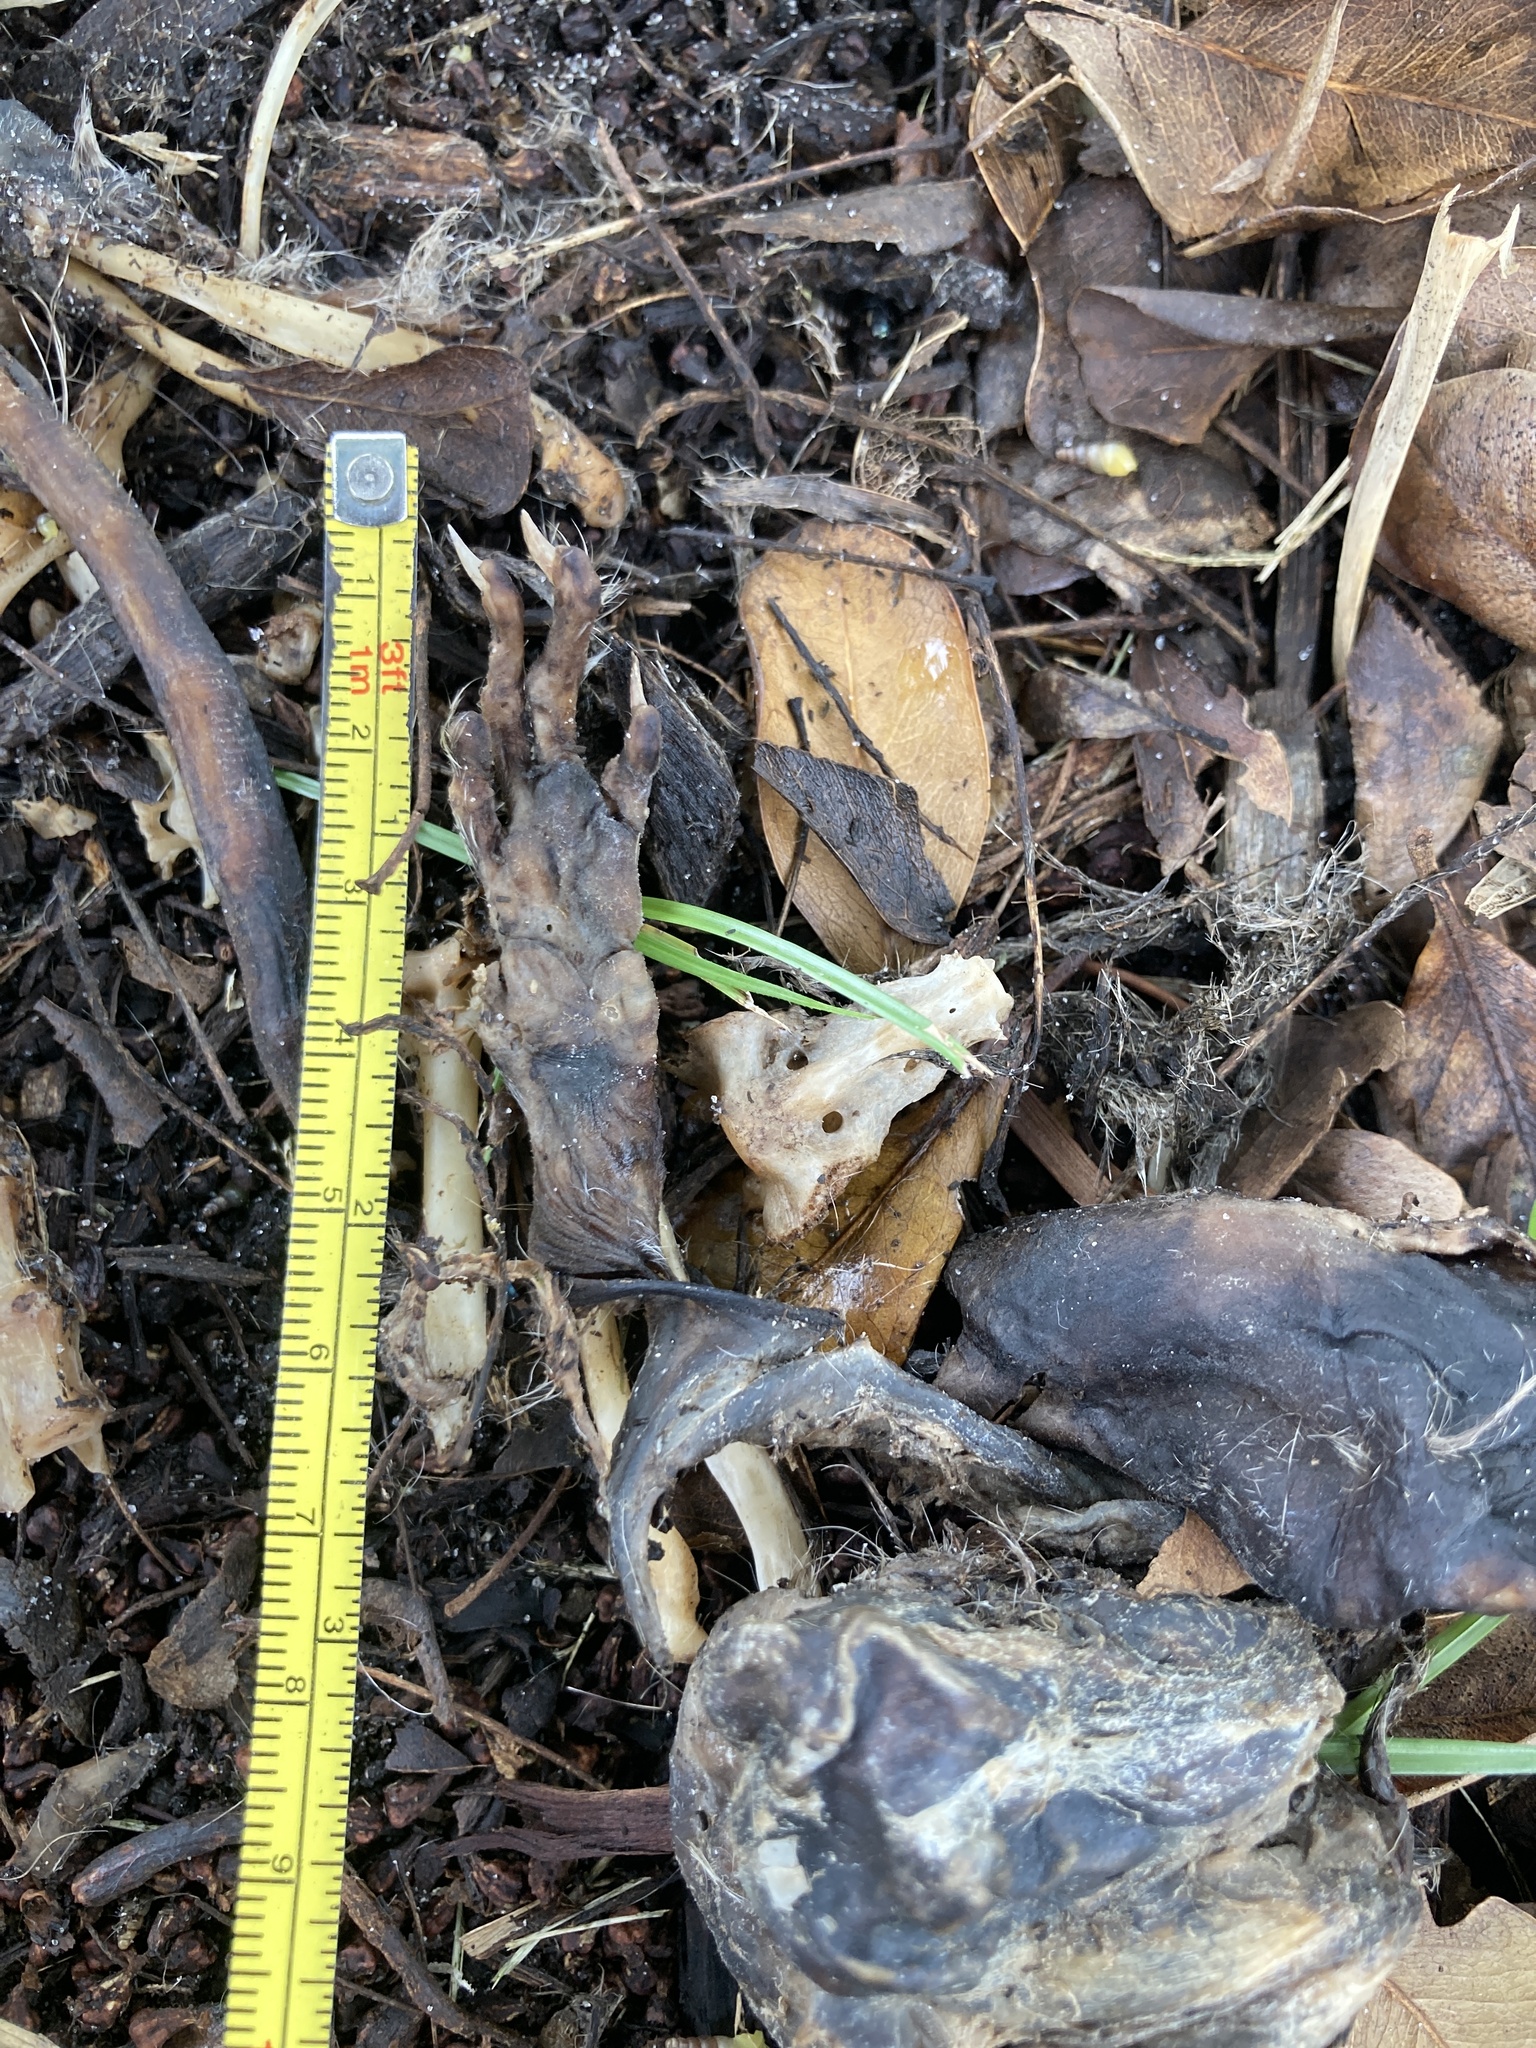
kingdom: Animalia
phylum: Chordata
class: Mammalia
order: Rodentia
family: Sciuridae
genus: Sciurus
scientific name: Sciurus carolinensis
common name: Eastern gray squirrel
